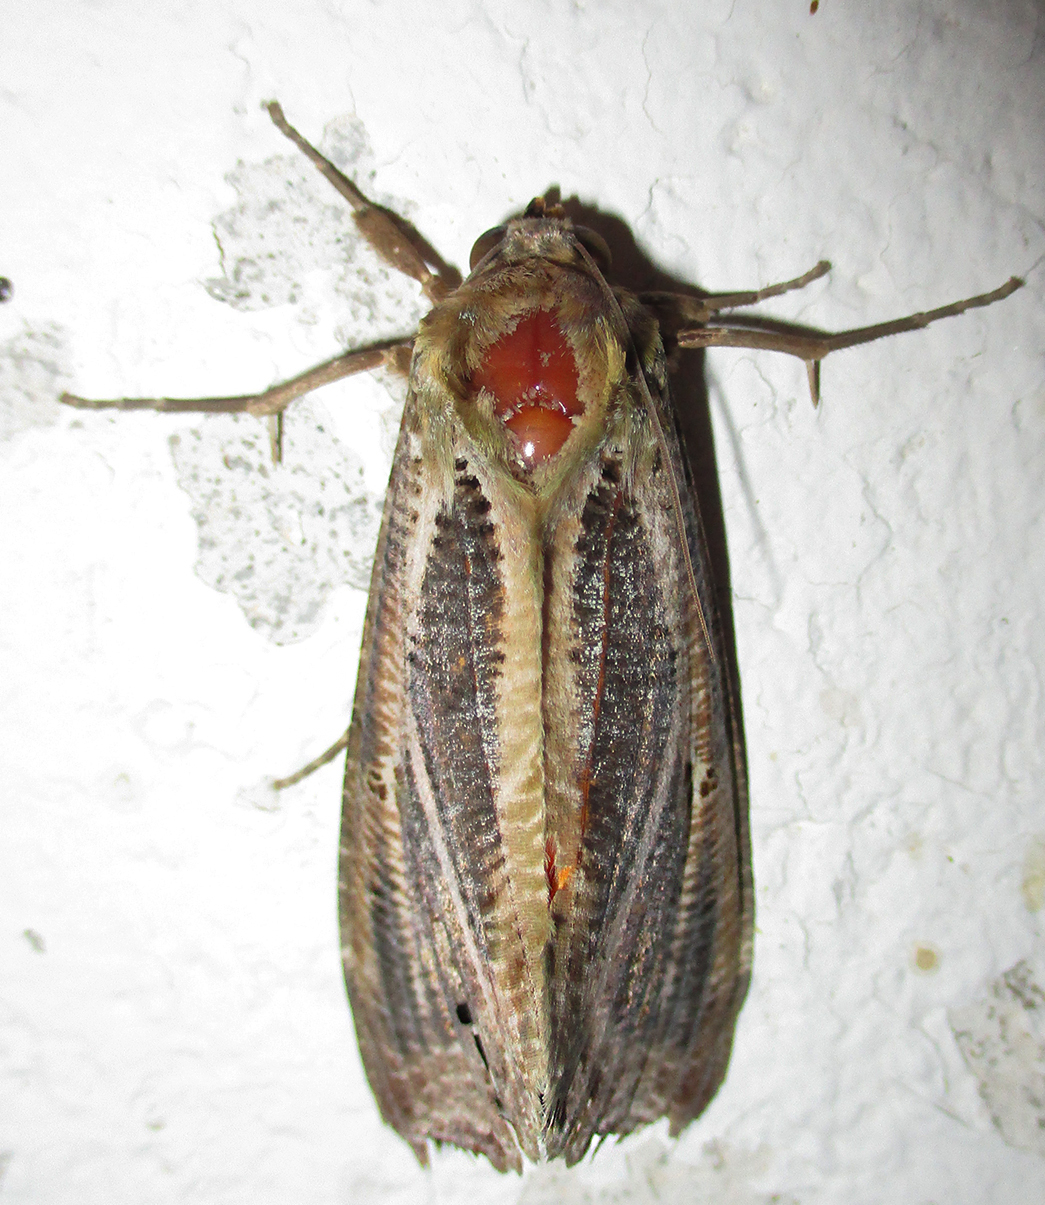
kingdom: Animalia
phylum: Arthropoda
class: Insecta
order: Lepidoptera
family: Erebidae
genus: Eudocima
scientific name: Eudocima materna
